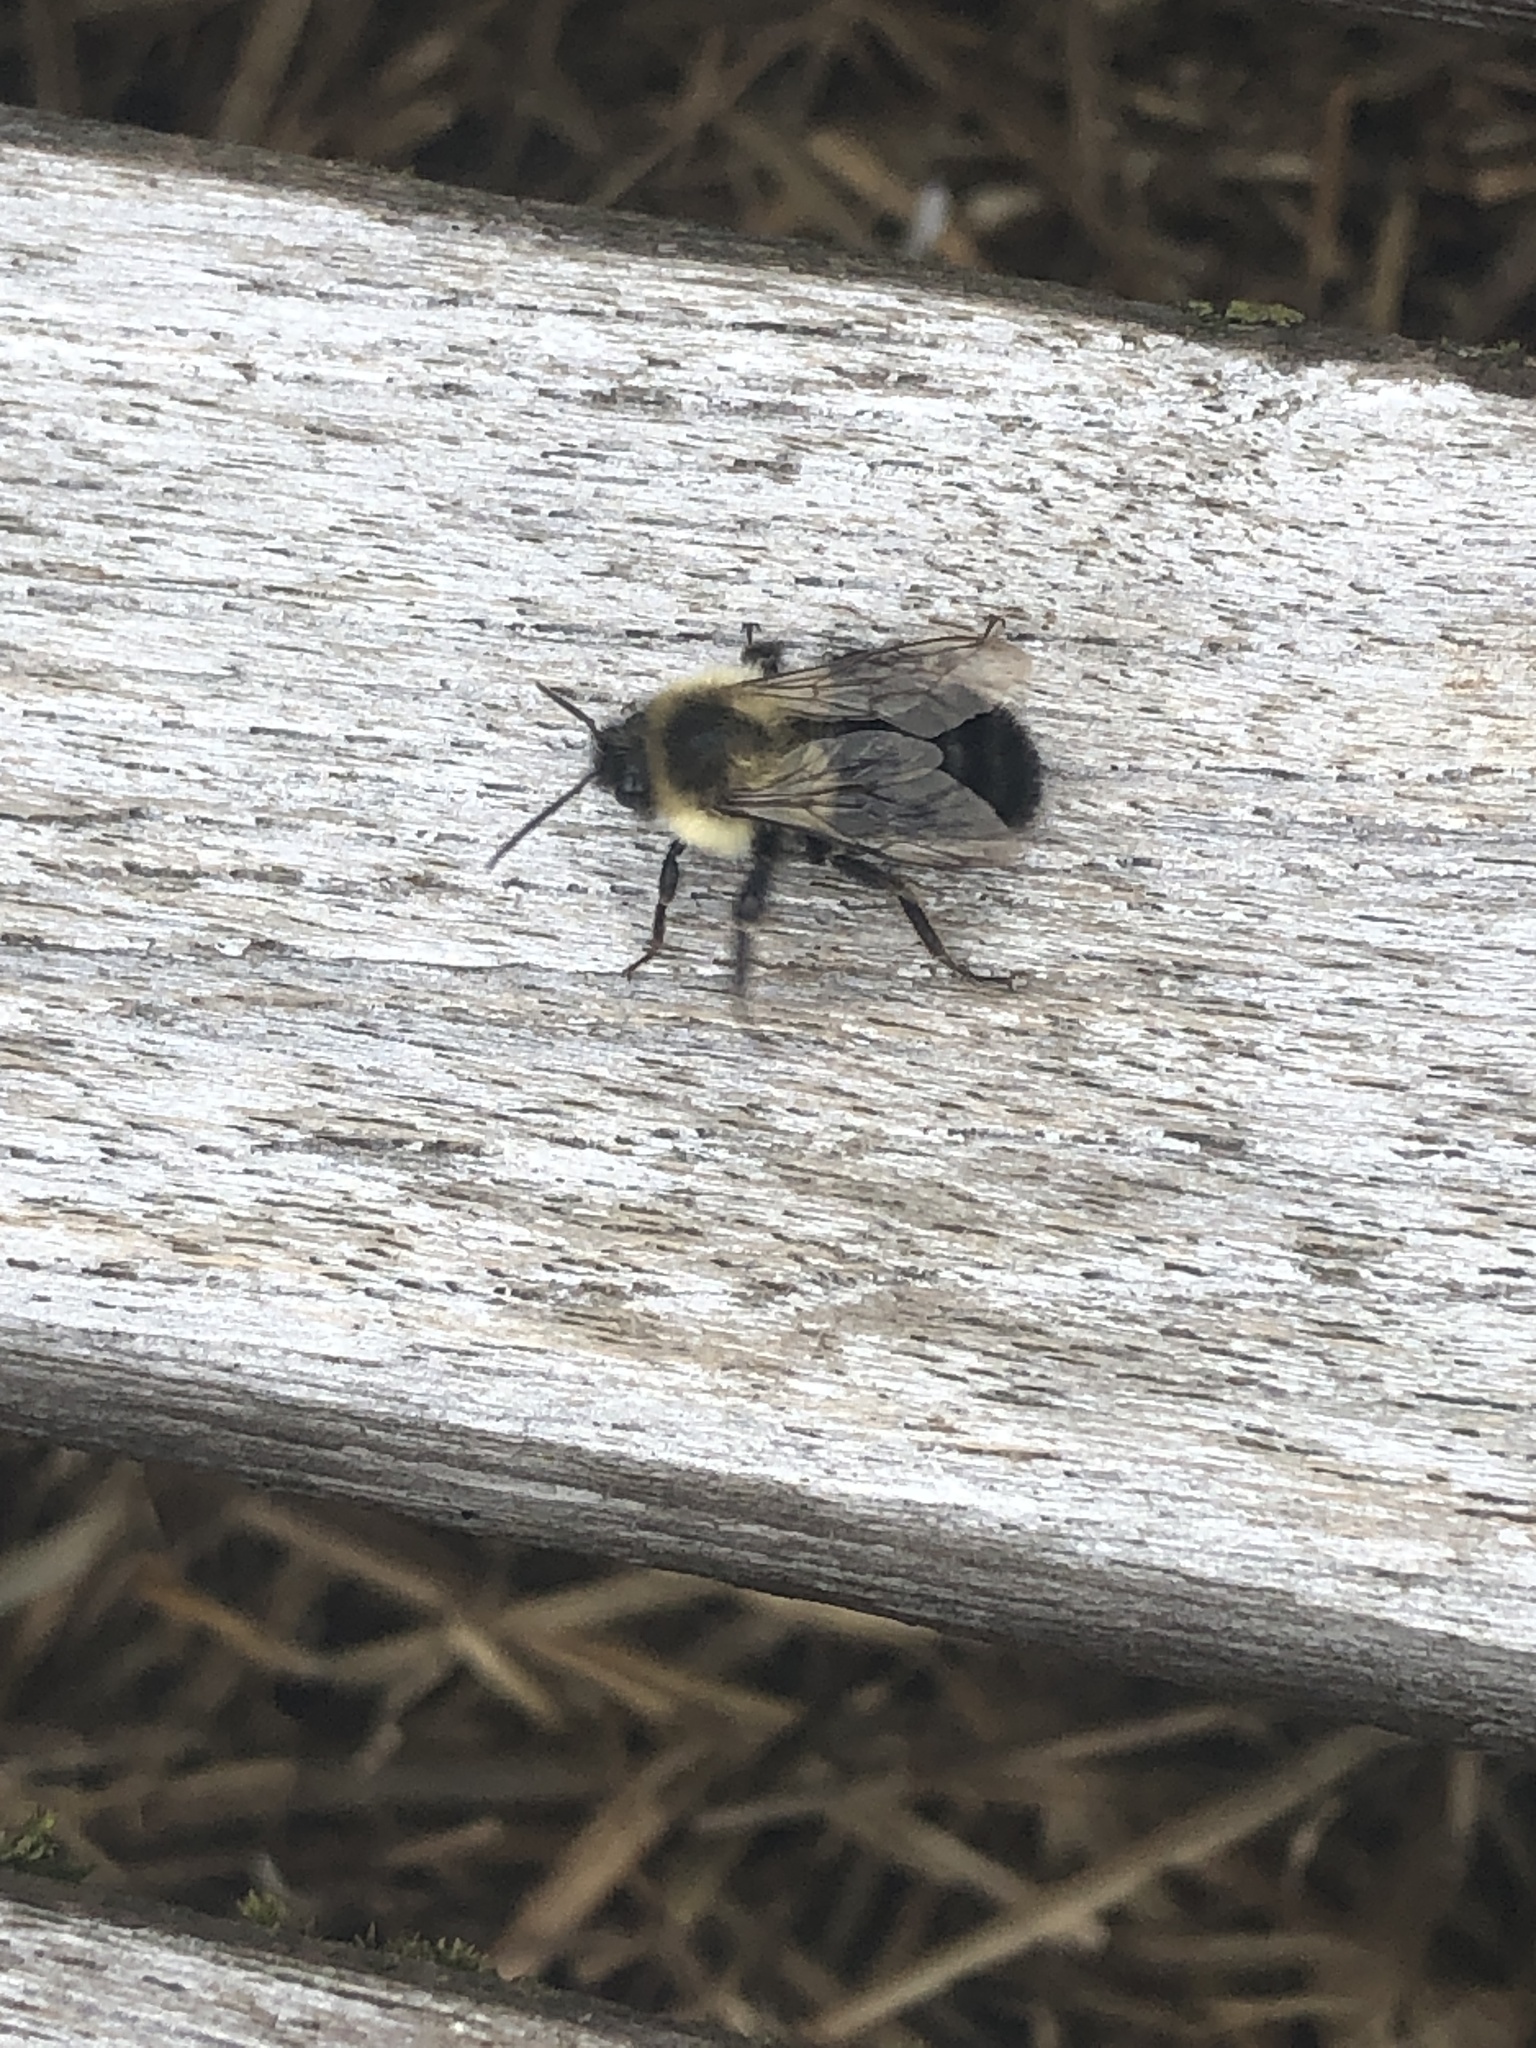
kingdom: Animalia
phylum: Arthropoda
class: Insecta
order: Hymenoptera
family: Apidae
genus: Bombus
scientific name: Bombus impatiens
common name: Common eastern bumble bee
